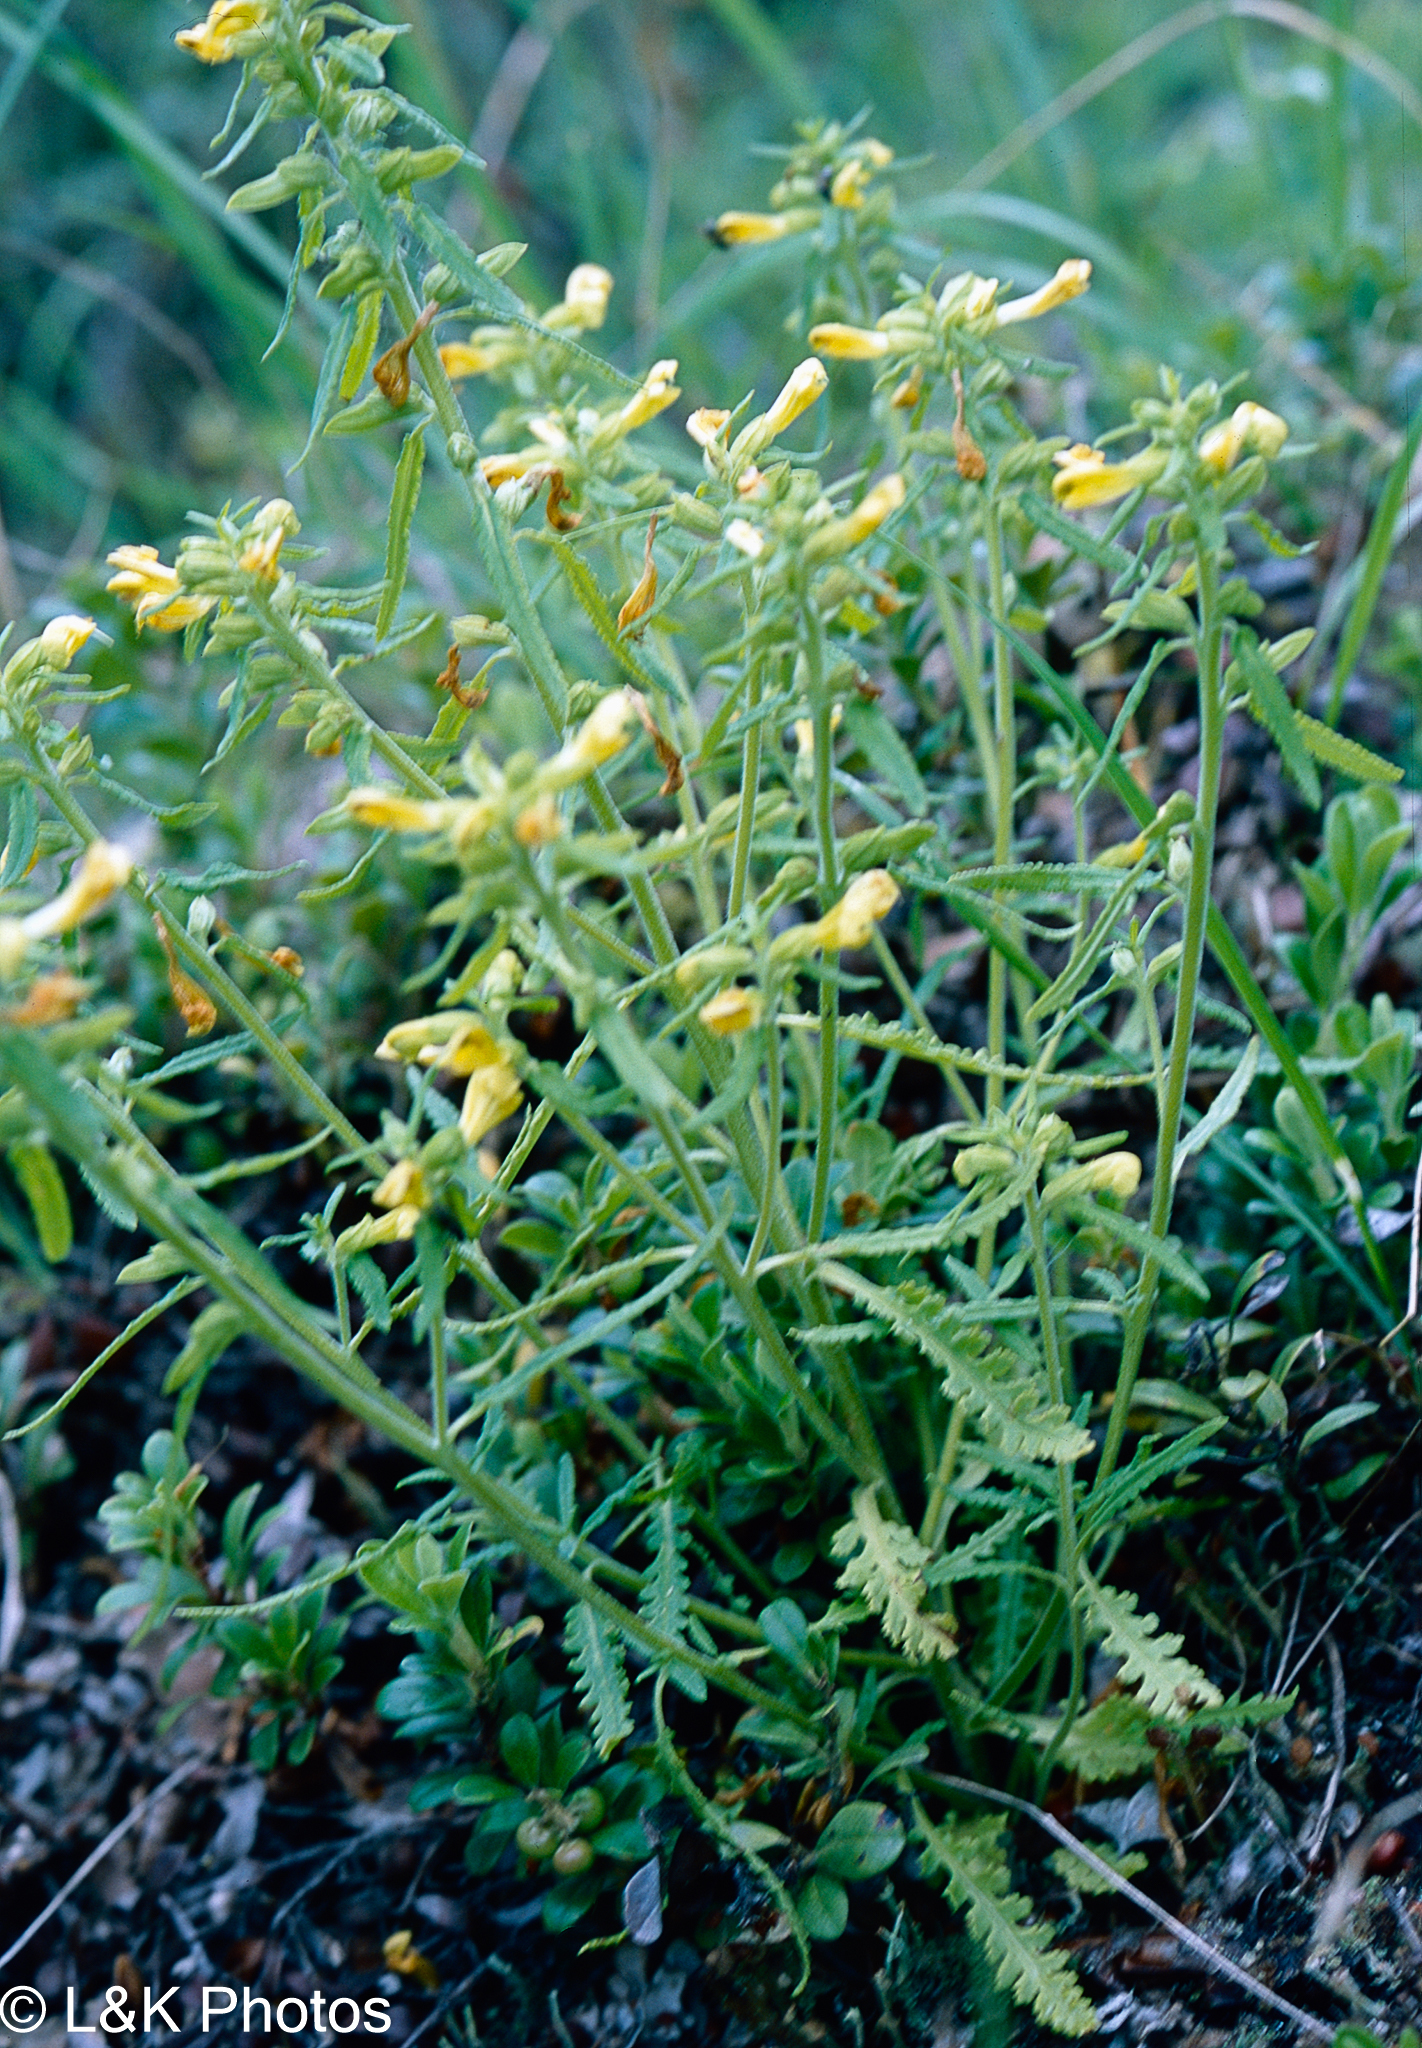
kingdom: Plantae
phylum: Tracheophyta
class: Magnoliopsida
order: Lamiales
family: Orobanchaceae
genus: Pedicularis
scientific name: Pedicularis labradorica
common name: Labrador lousewort
